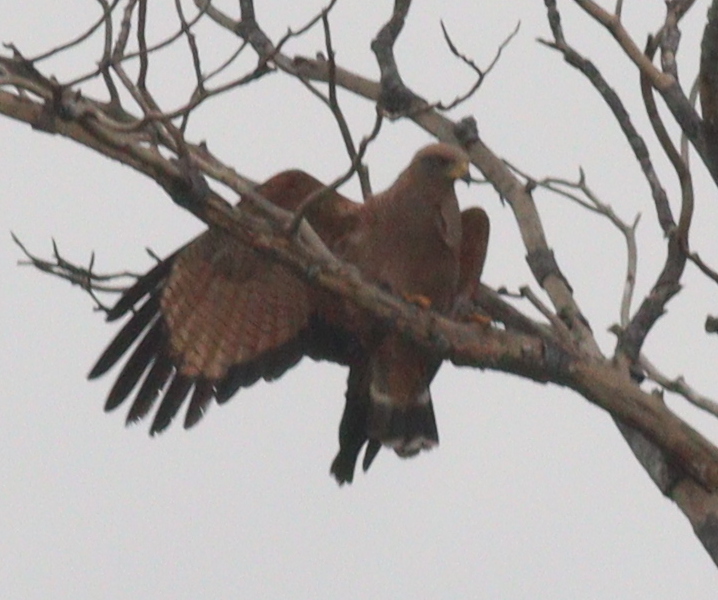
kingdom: Animalia
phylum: Chordata
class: Aves
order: Accipitriformes
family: Accipitridae
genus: Buteogallus
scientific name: Buteogallus meridionalis
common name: Savanna hawk
